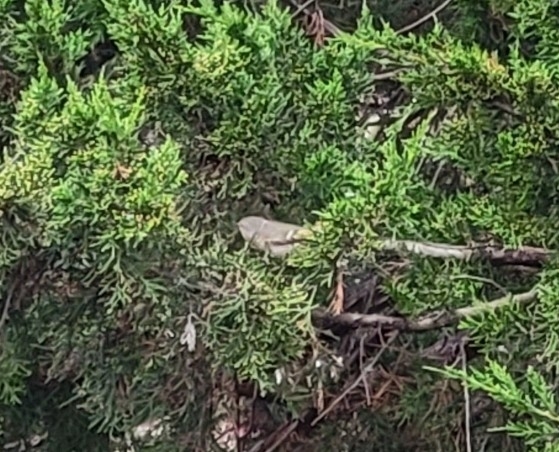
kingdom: Animalia
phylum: Chordata
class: Aves
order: Passeriformes
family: Regulidae
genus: Regulus
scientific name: Regulus calendula
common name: Ruby-crowned kinglet
